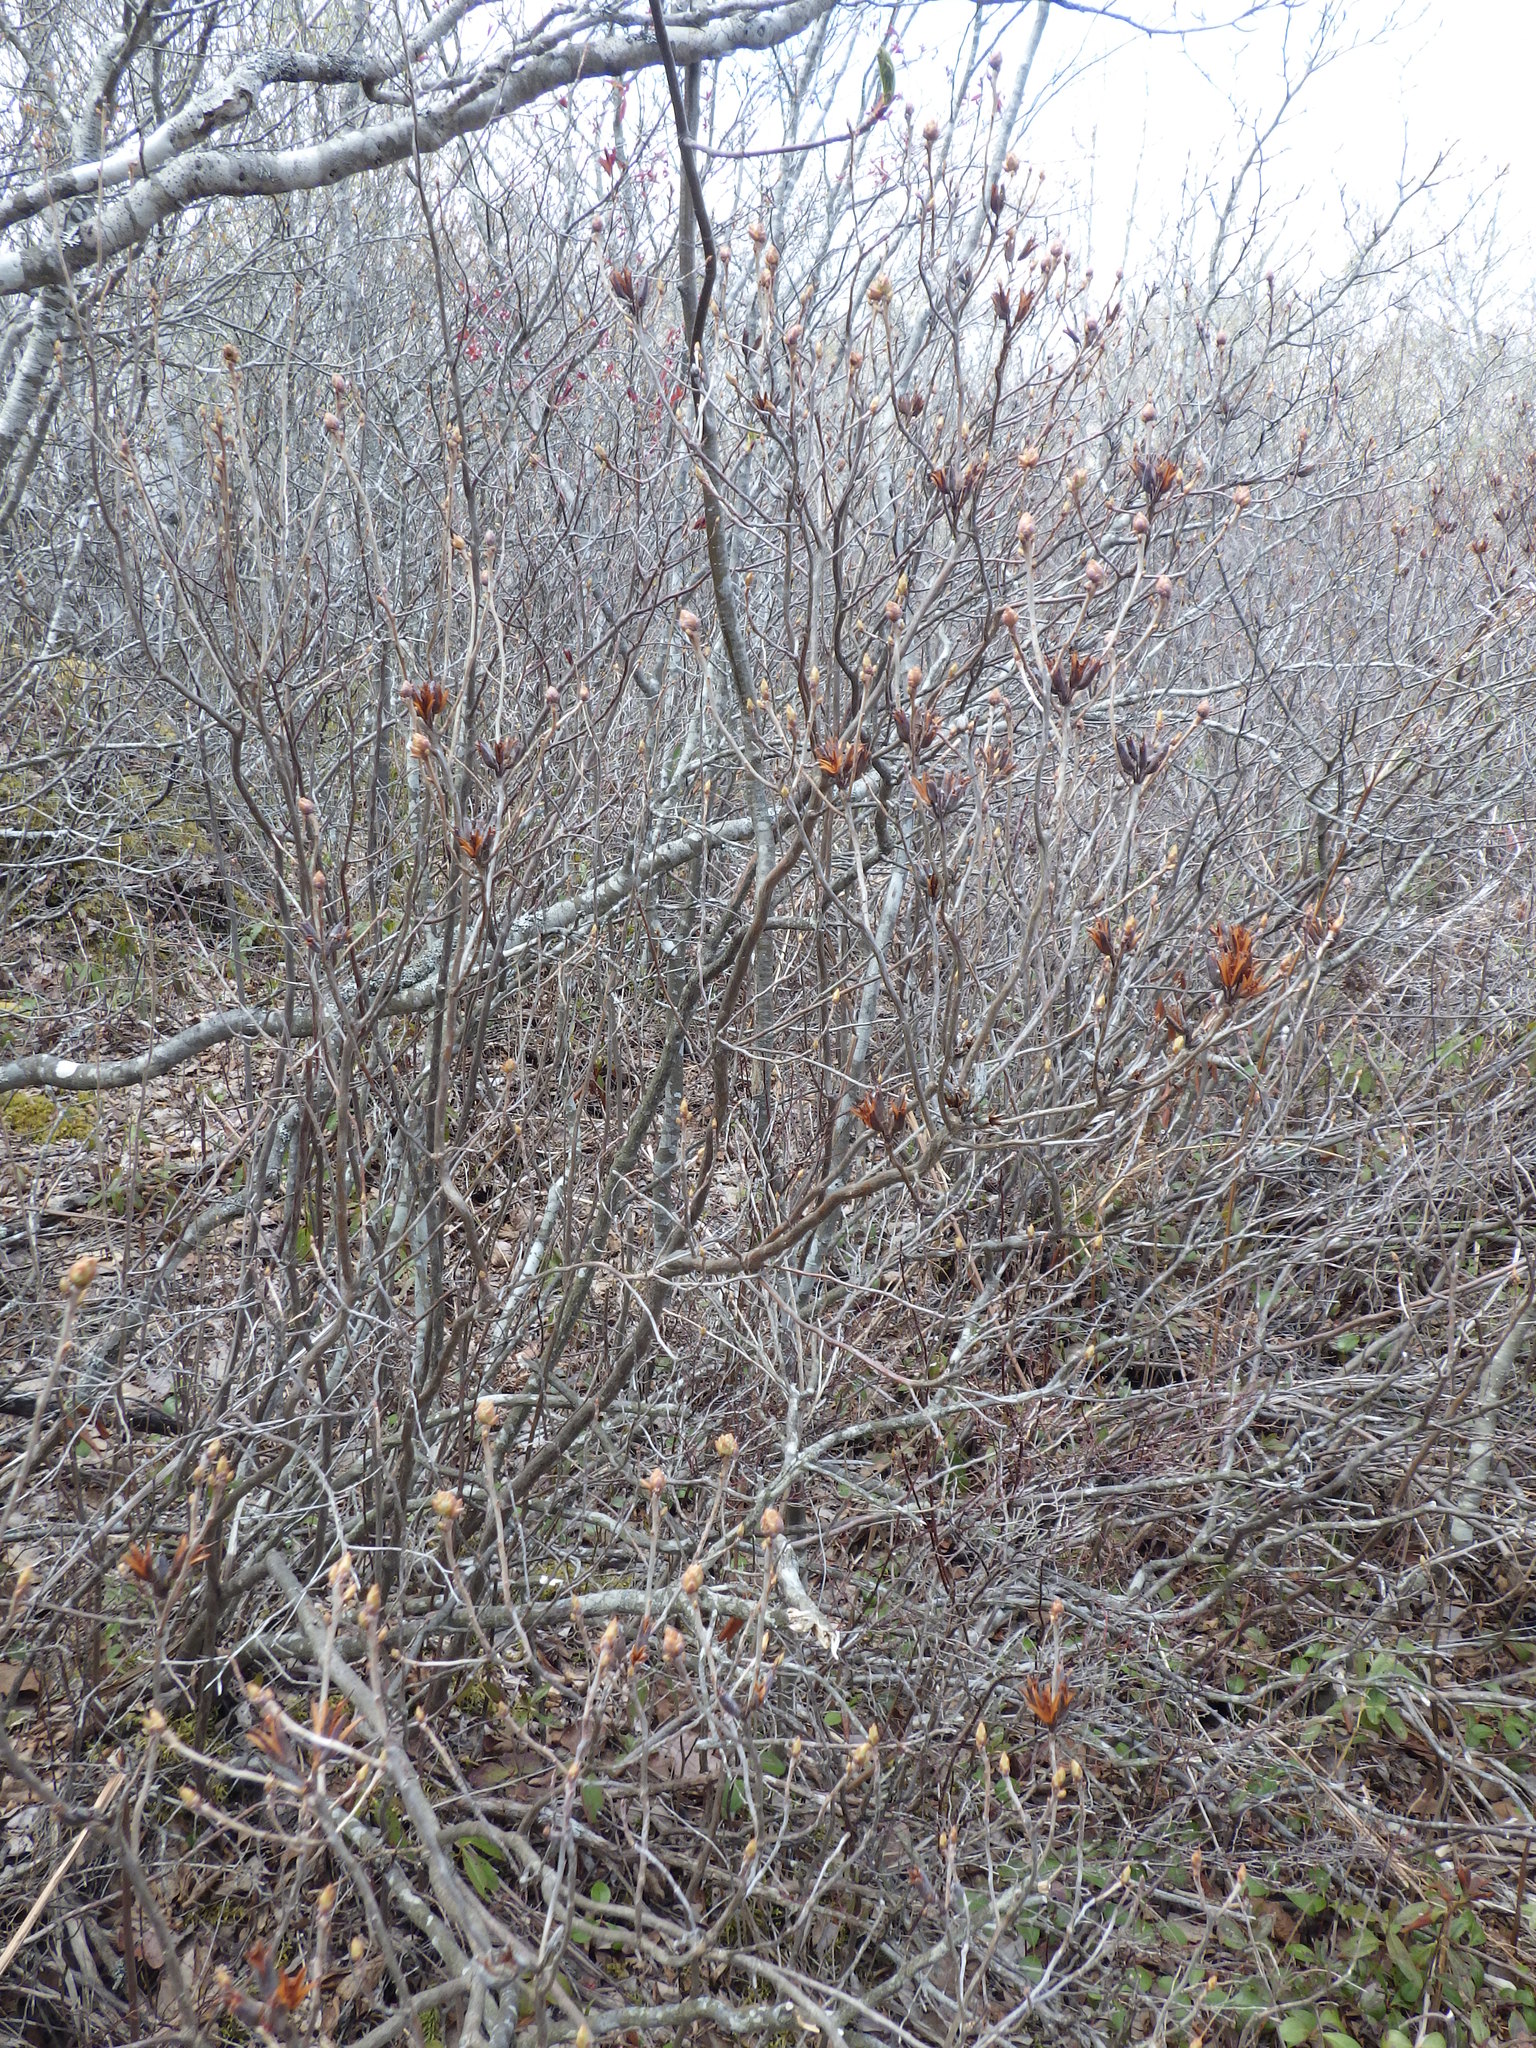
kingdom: Plantae
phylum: Tracheophyta
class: Magnoliopsida
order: Ericales
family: Ericaceae
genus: Rhododendron
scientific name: Rhododendron canadense
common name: Rhodora
